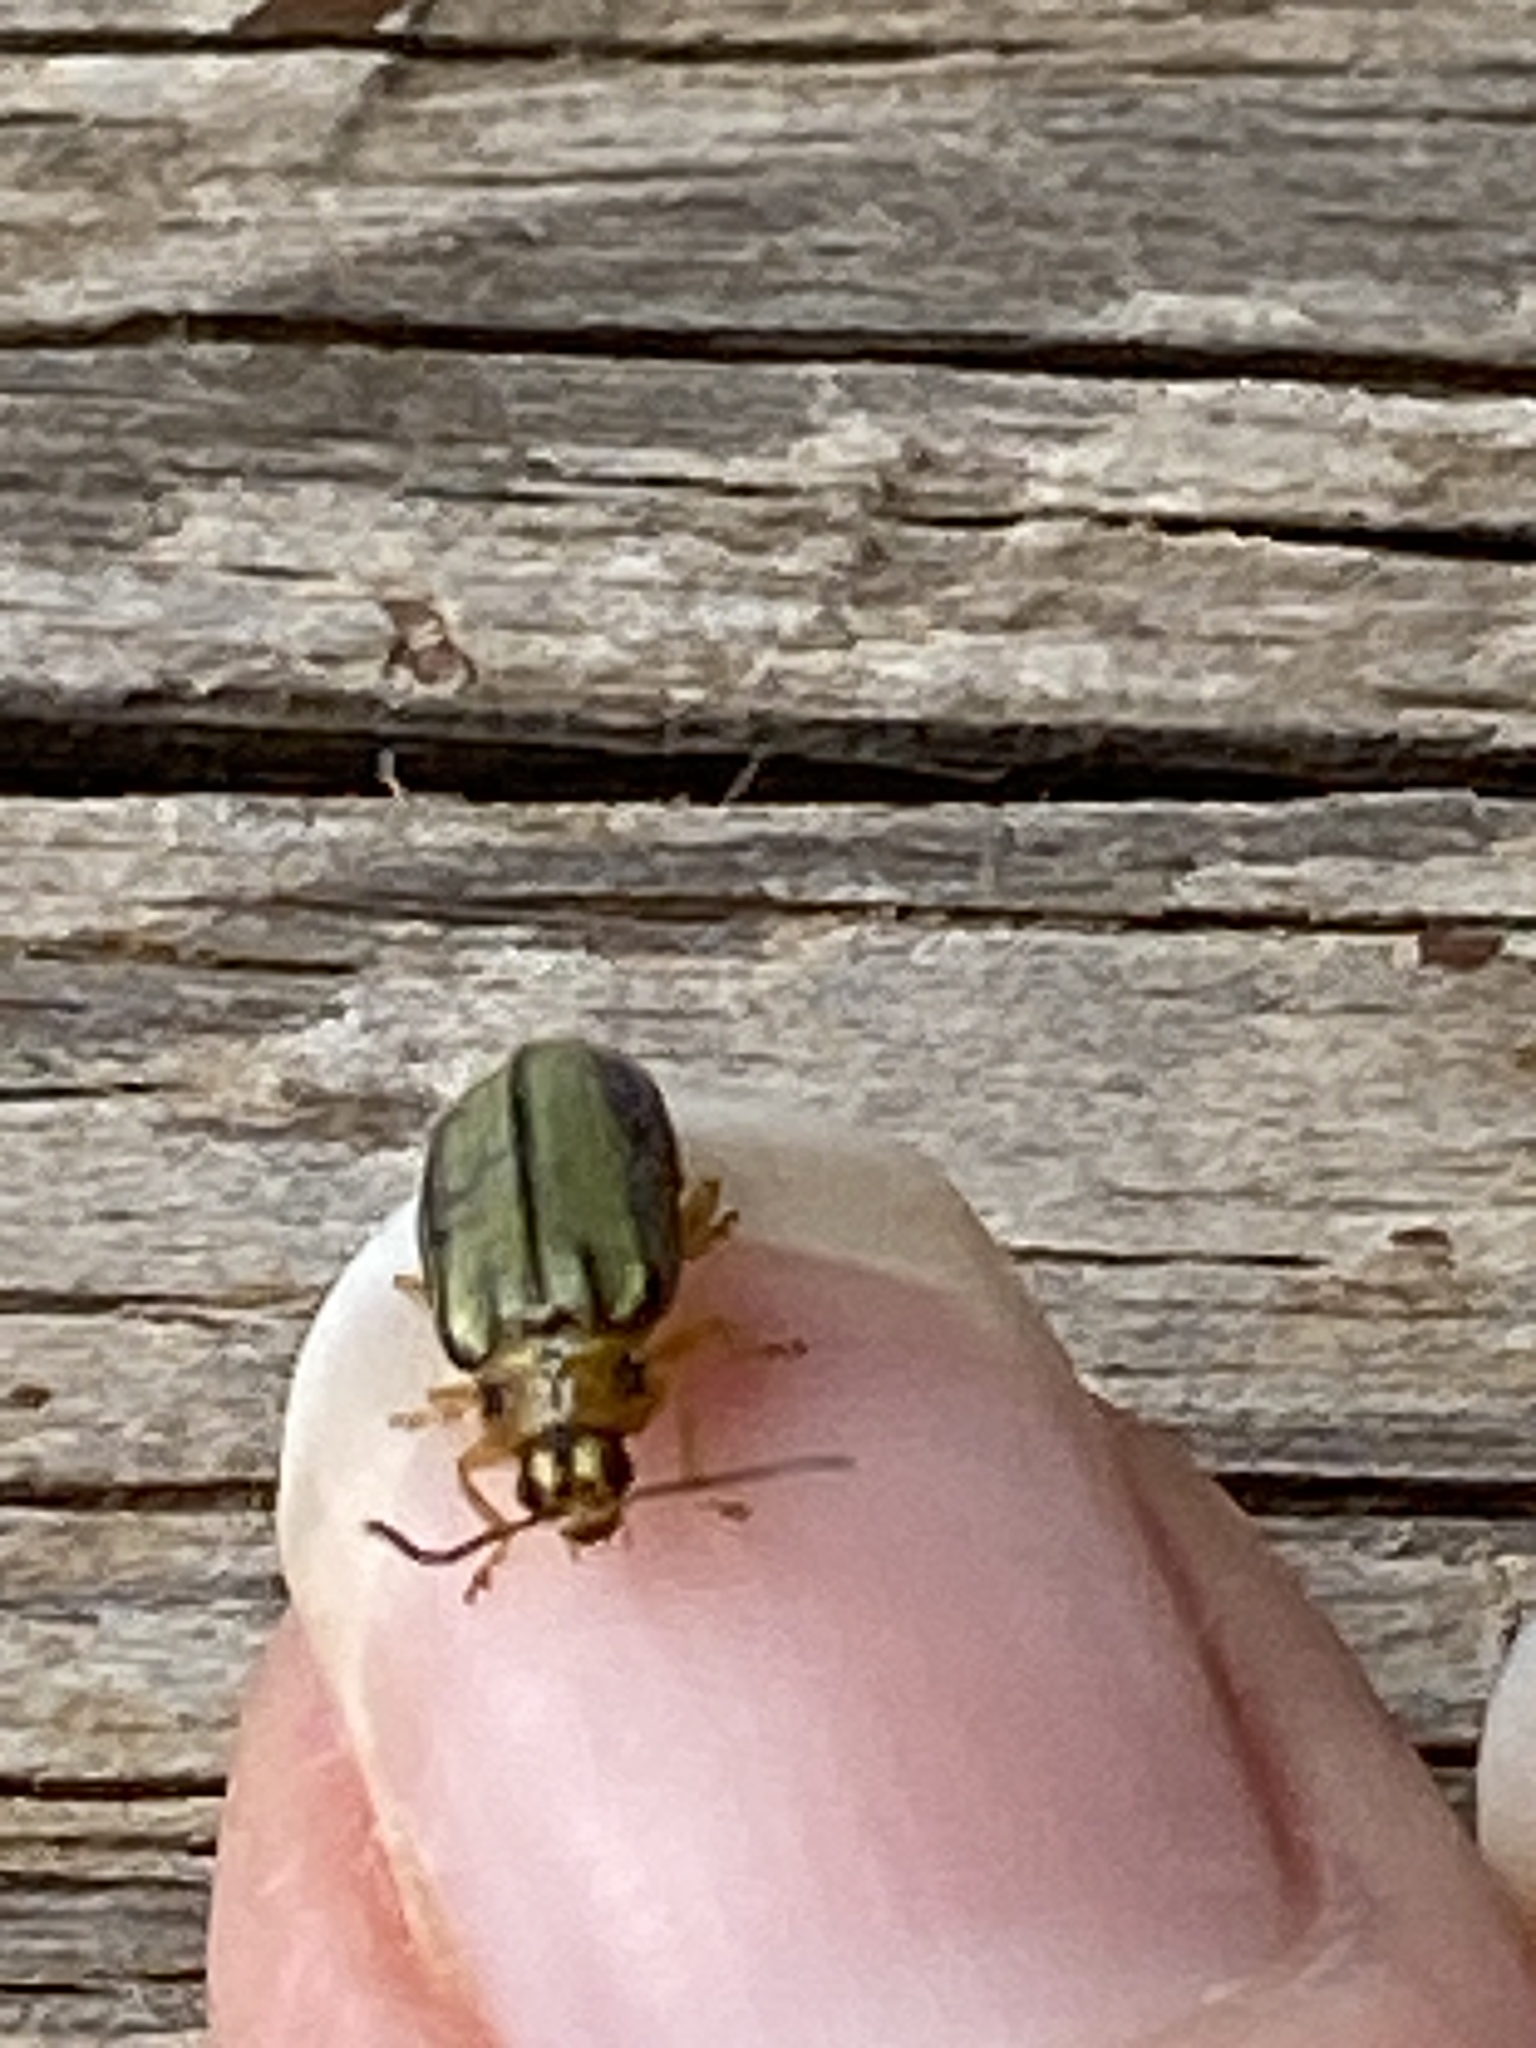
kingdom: Animalia
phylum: Arthropoda
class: Insecta
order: Coleoptera
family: Chrysomelidae
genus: Xanthogaleruca
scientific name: Xanthogaleruca luteola
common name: Elm leaf beetle
